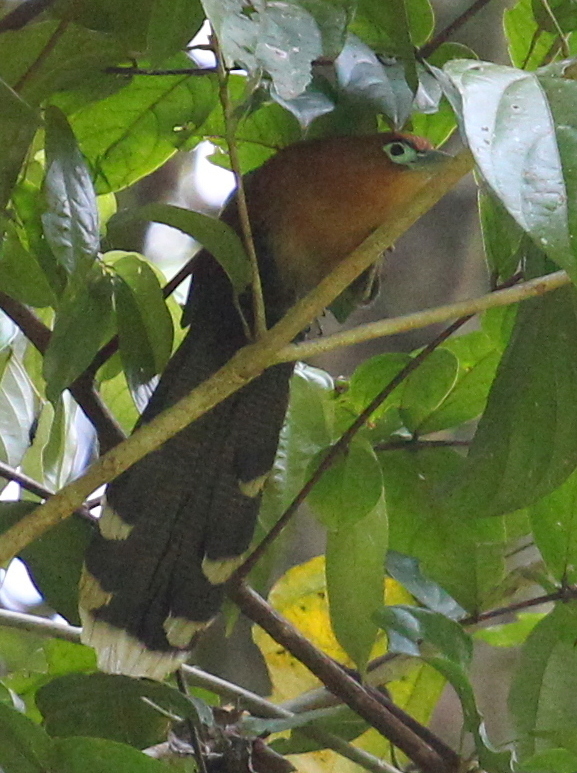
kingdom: Animalia
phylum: Chordata
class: Aves
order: Cuculiformes
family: Cuculidae
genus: Rhinortha
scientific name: Rhinortha chlorophaea
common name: Raffles's malkoha
